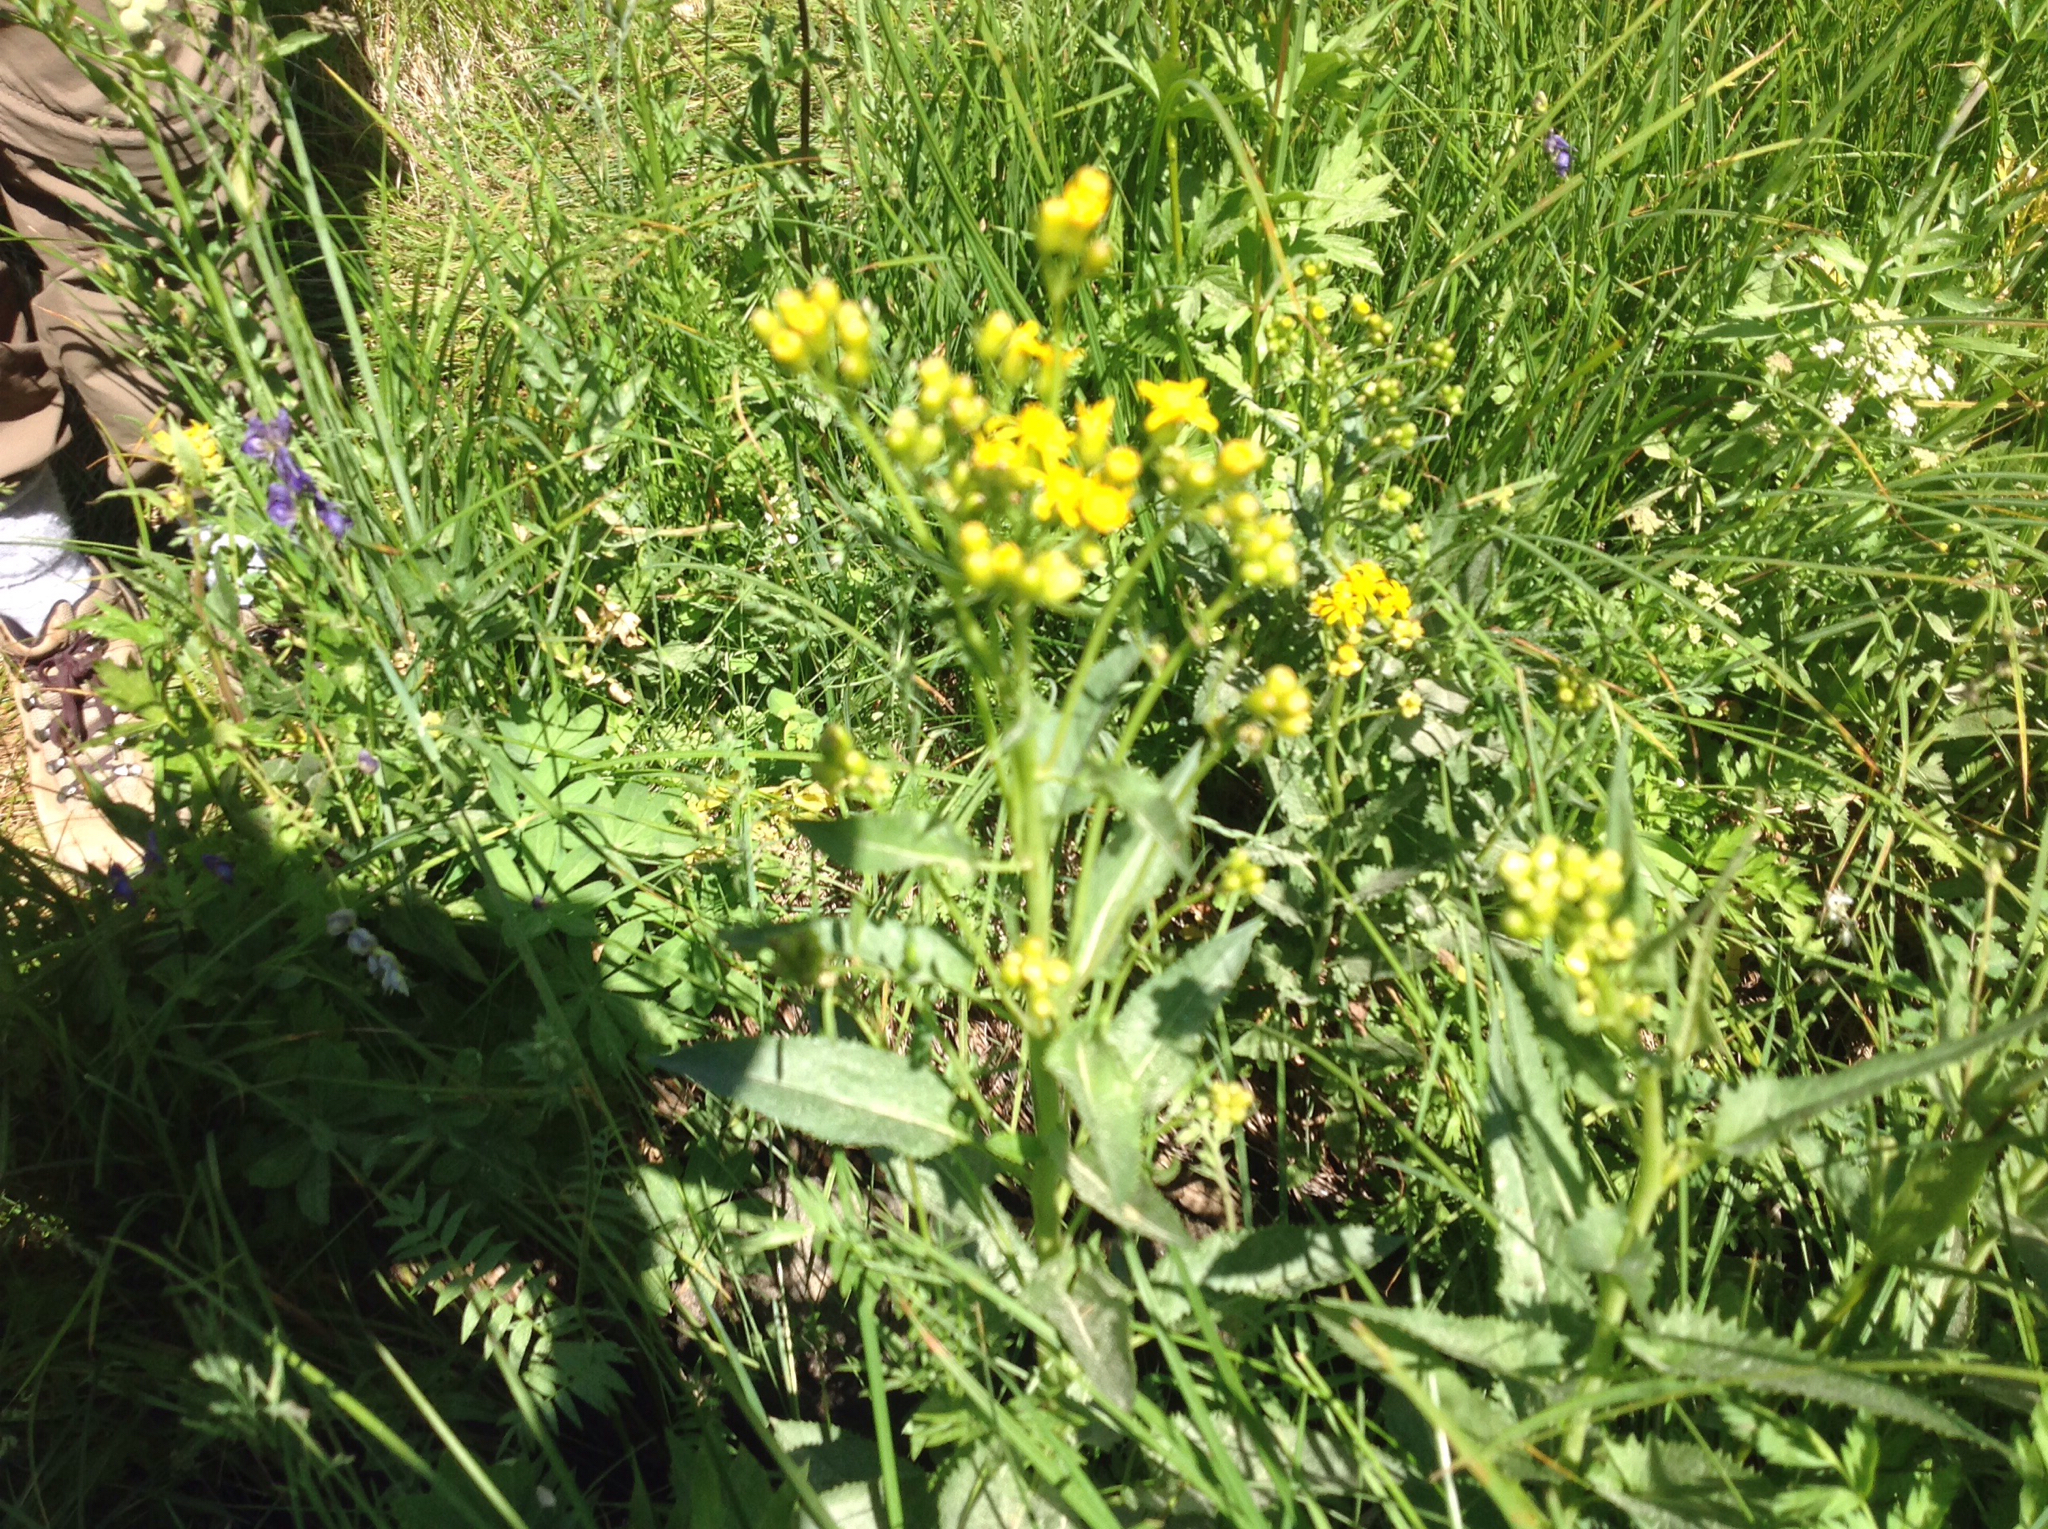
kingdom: Plantae
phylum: Tracheophyta
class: Magnoliopsida
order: Asterales
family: Asteraceae
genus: Senecio
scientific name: Senecio triangularis
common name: Arrowleaf butterweed
